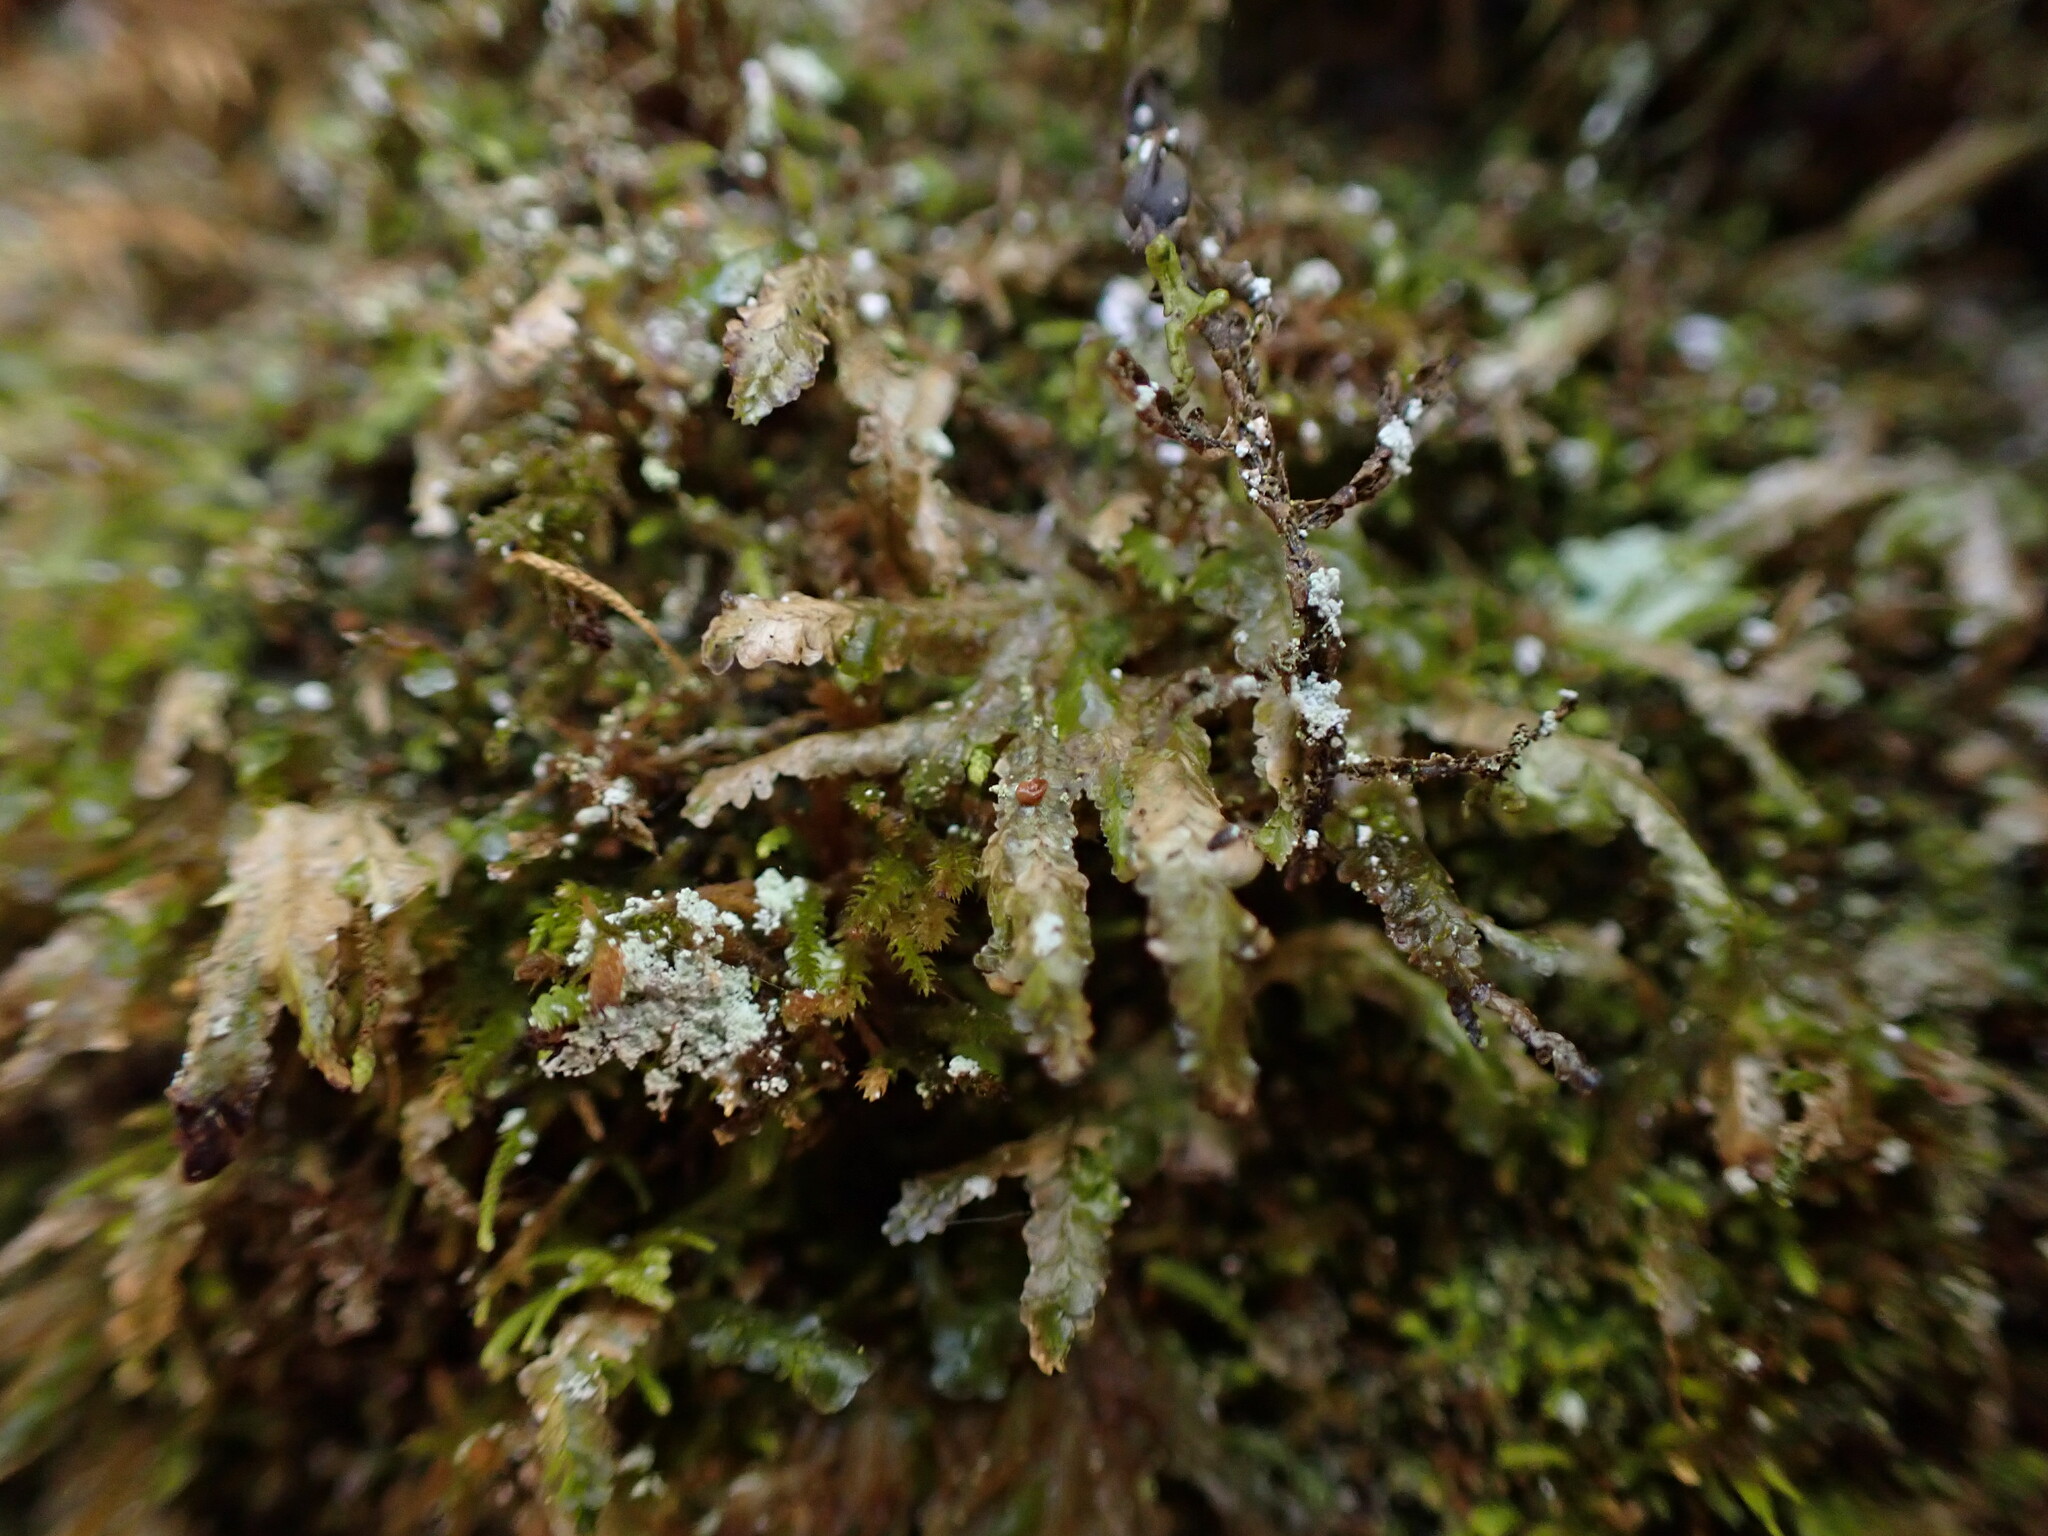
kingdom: Plantae
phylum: Bryophyta
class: Bryopsida
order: Hypnales
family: Neckeraceae
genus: Homalia
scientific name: Homalia trichomanoides
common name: Lime homalia moss
